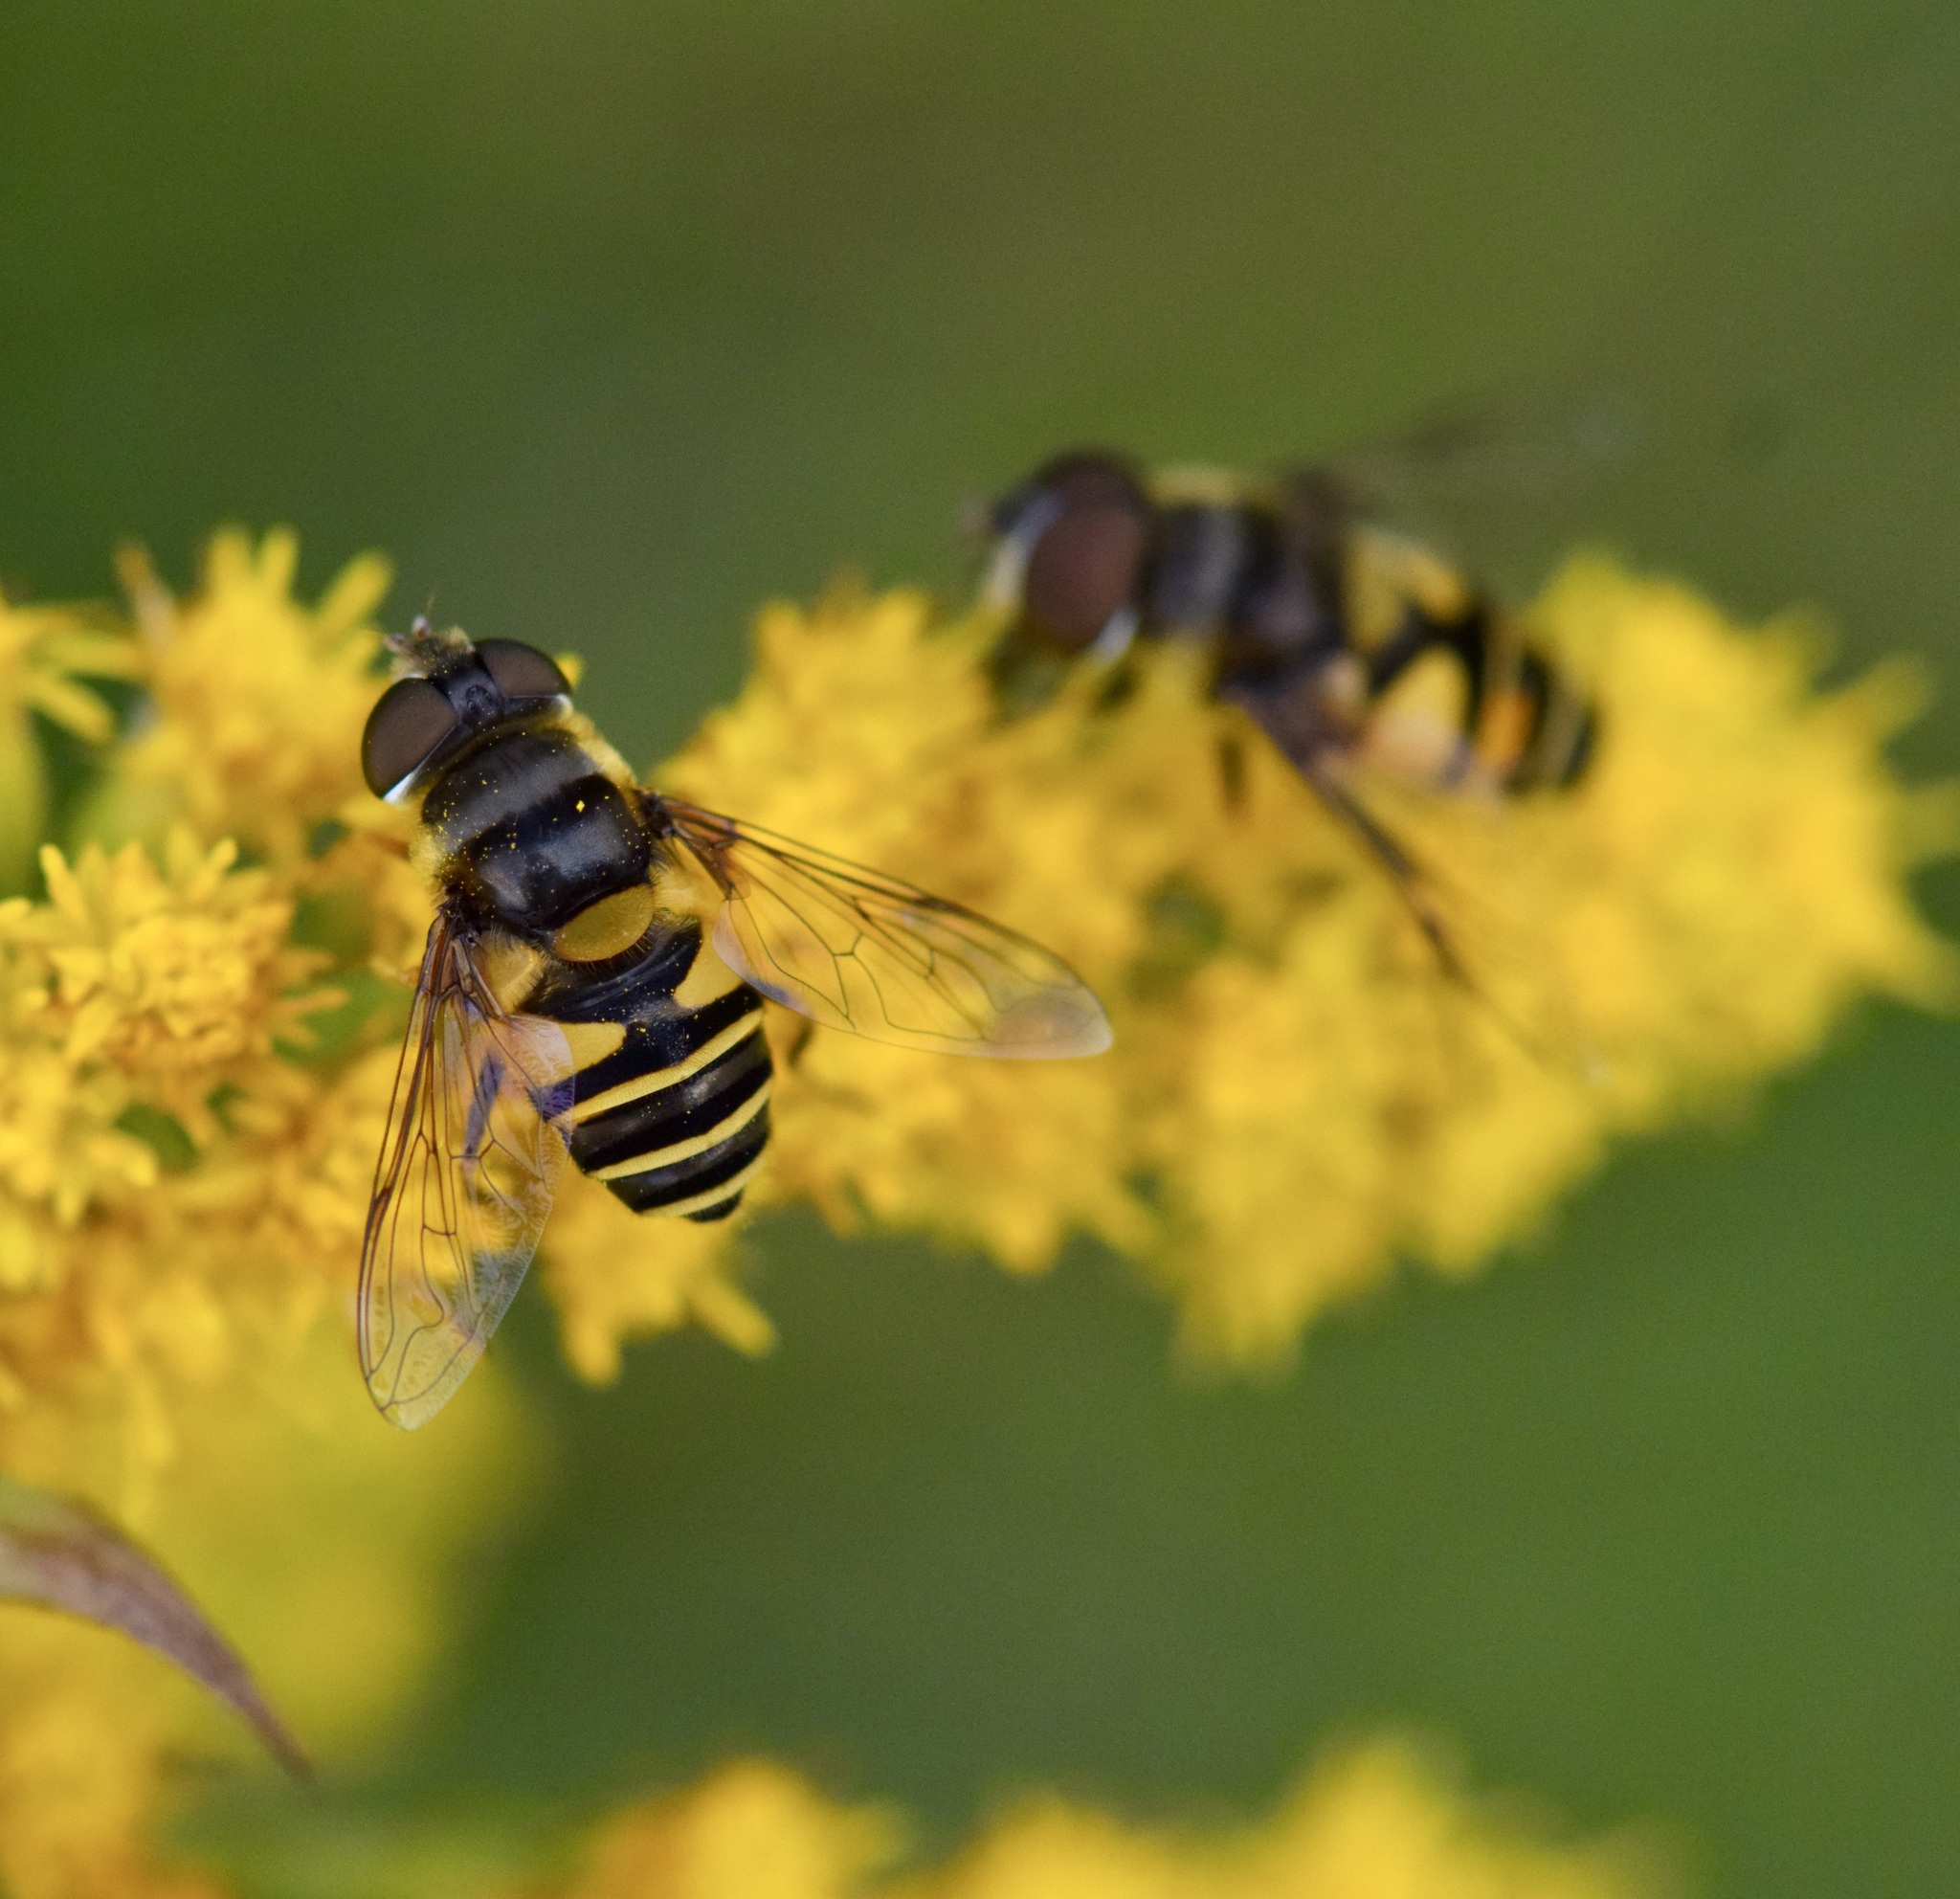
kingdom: Animalia
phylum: Arthropoda
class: Insecta
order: Diptera
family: Syrphidae
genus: Eristalis
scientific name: Eristalis transversa
